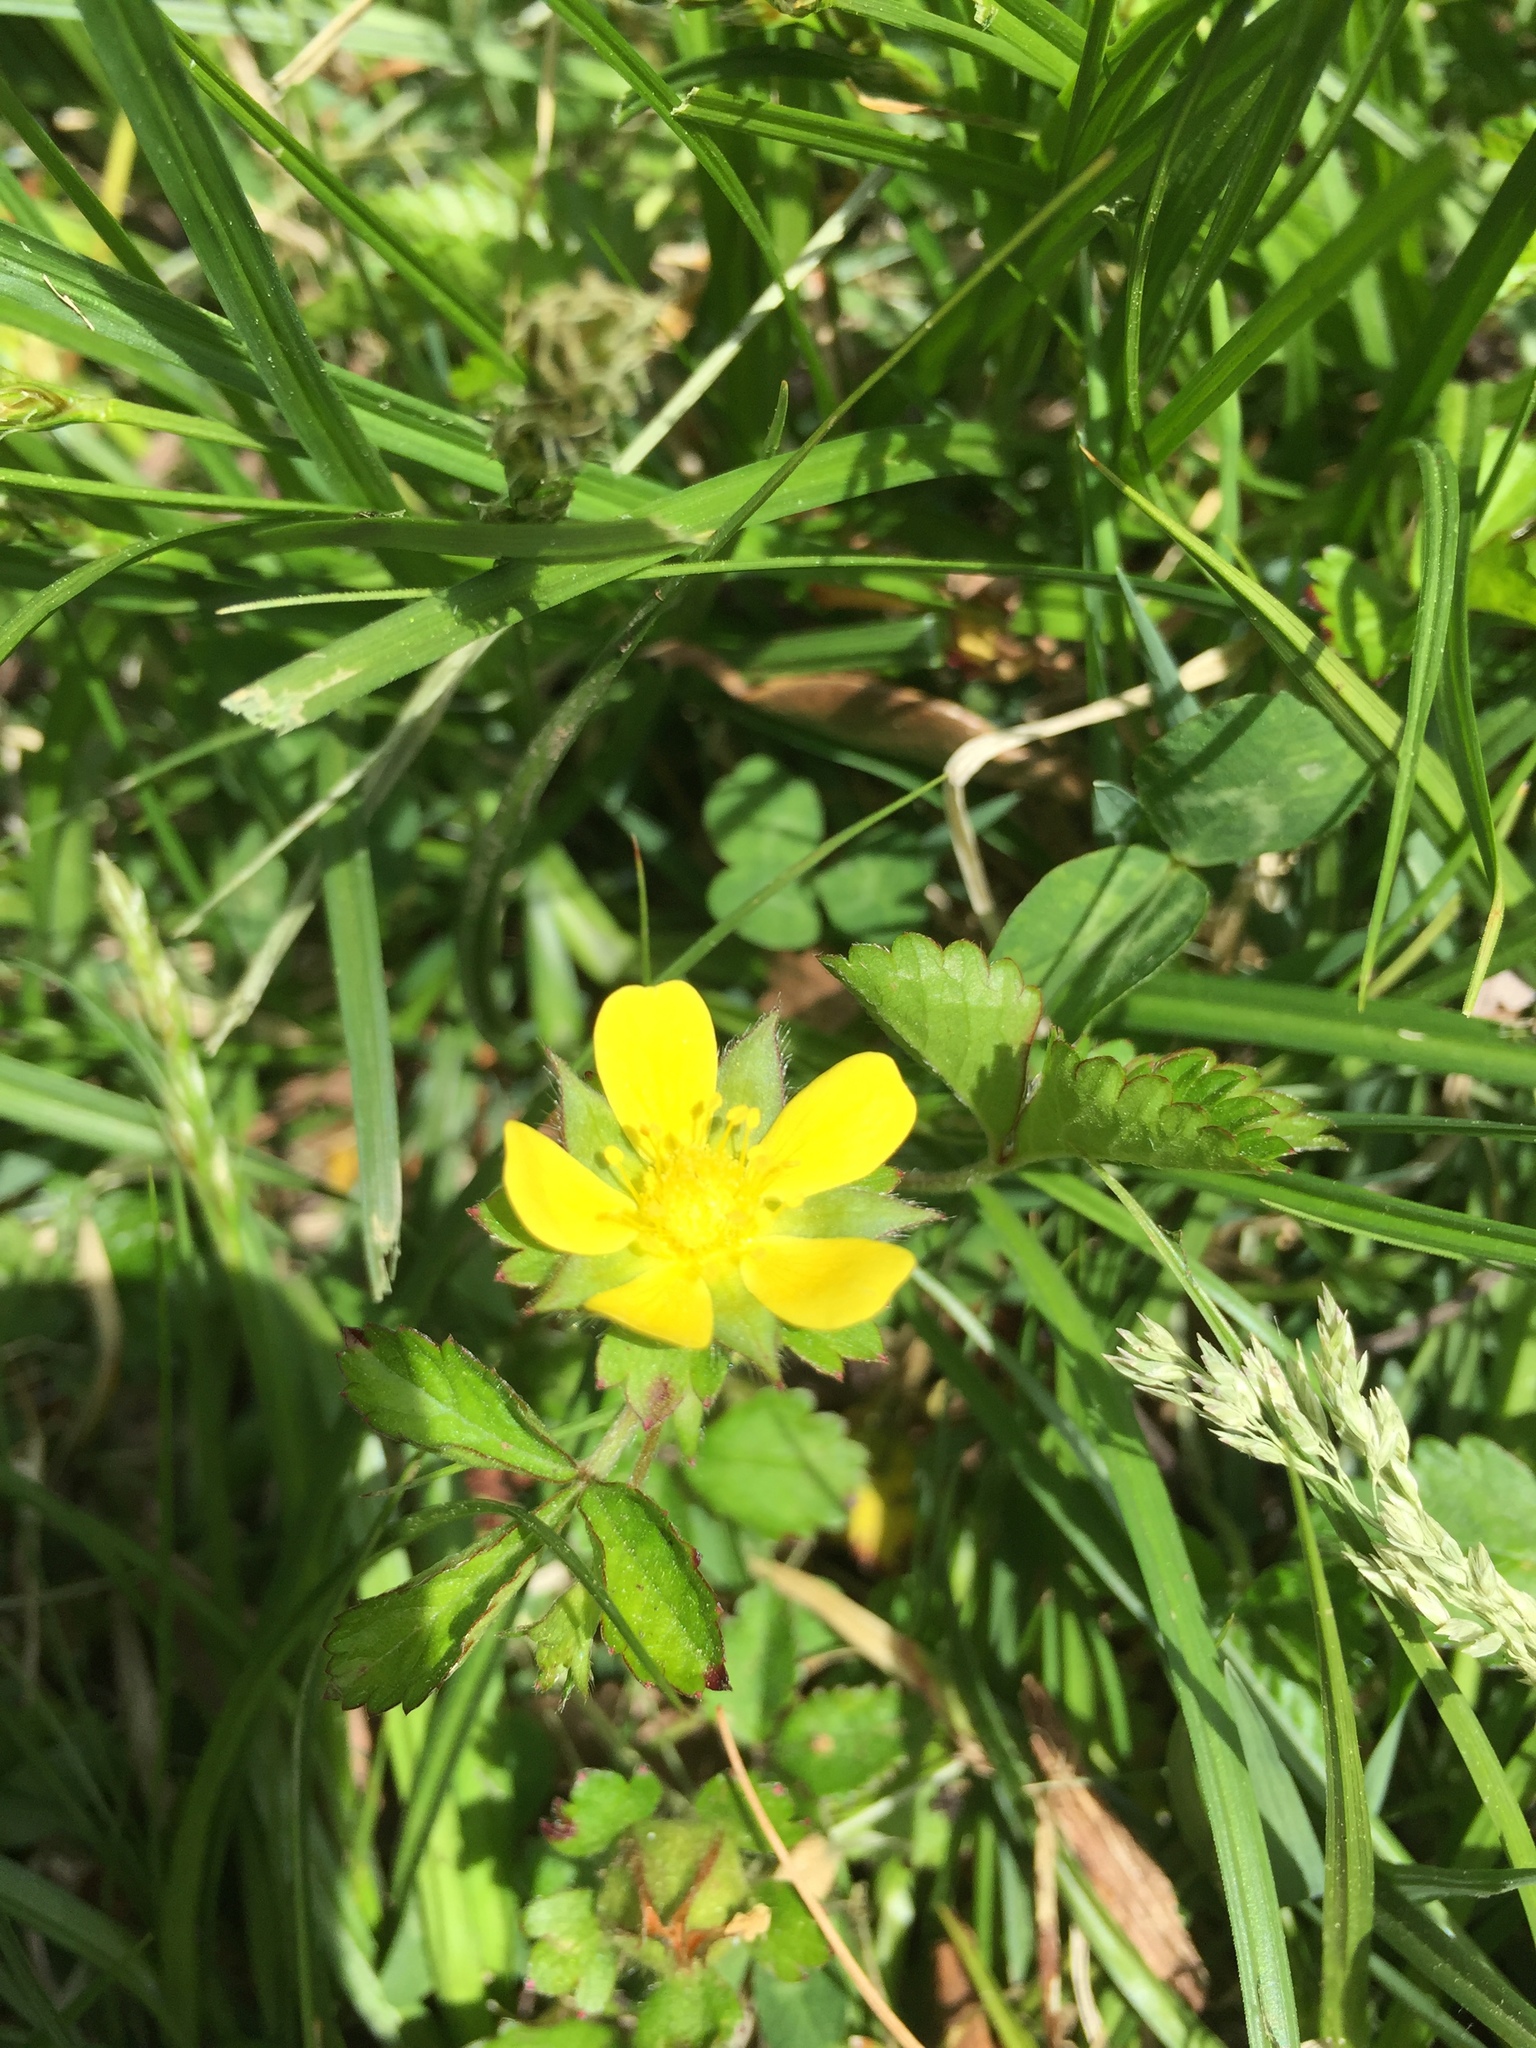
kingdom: Plantae
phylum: Tracheophyta
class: Magnoliopsida
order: Rosales
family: Rosaceae
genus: Potentilla
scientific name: Potentilla indica
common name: Yellow-flowered strawberry
